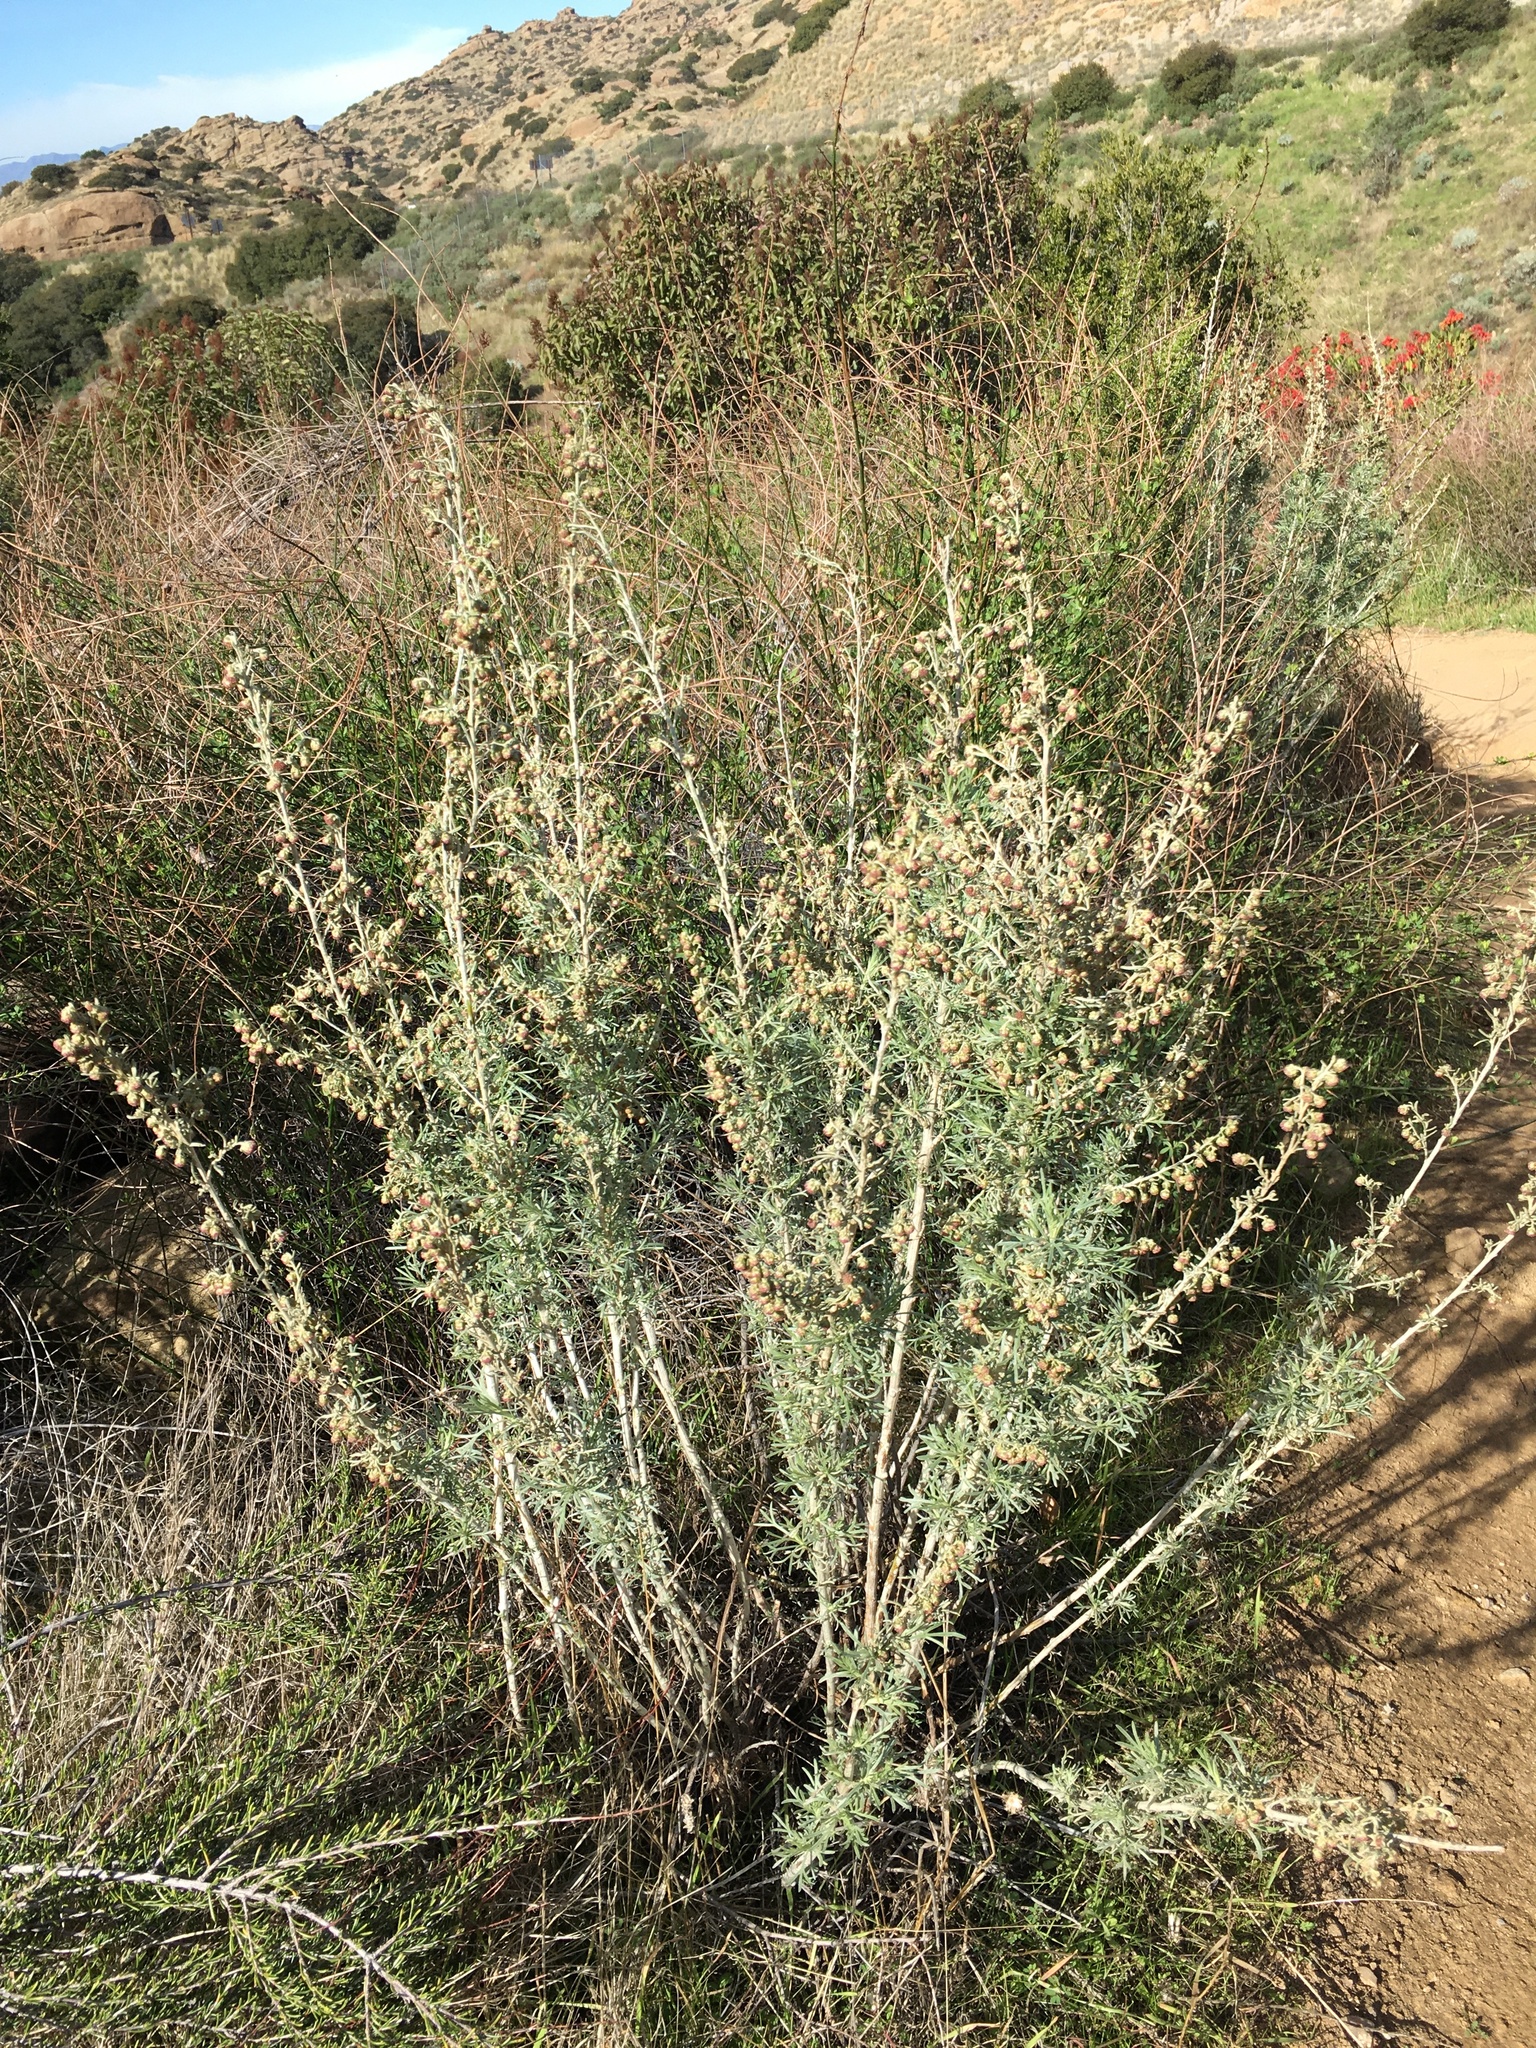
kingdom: Plantae
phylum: Tracheophyta
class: Magnoliopsida
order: Asterales
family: Asteraceae
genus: Artemisia
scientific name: Artemisia californica
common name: California sagebrush
